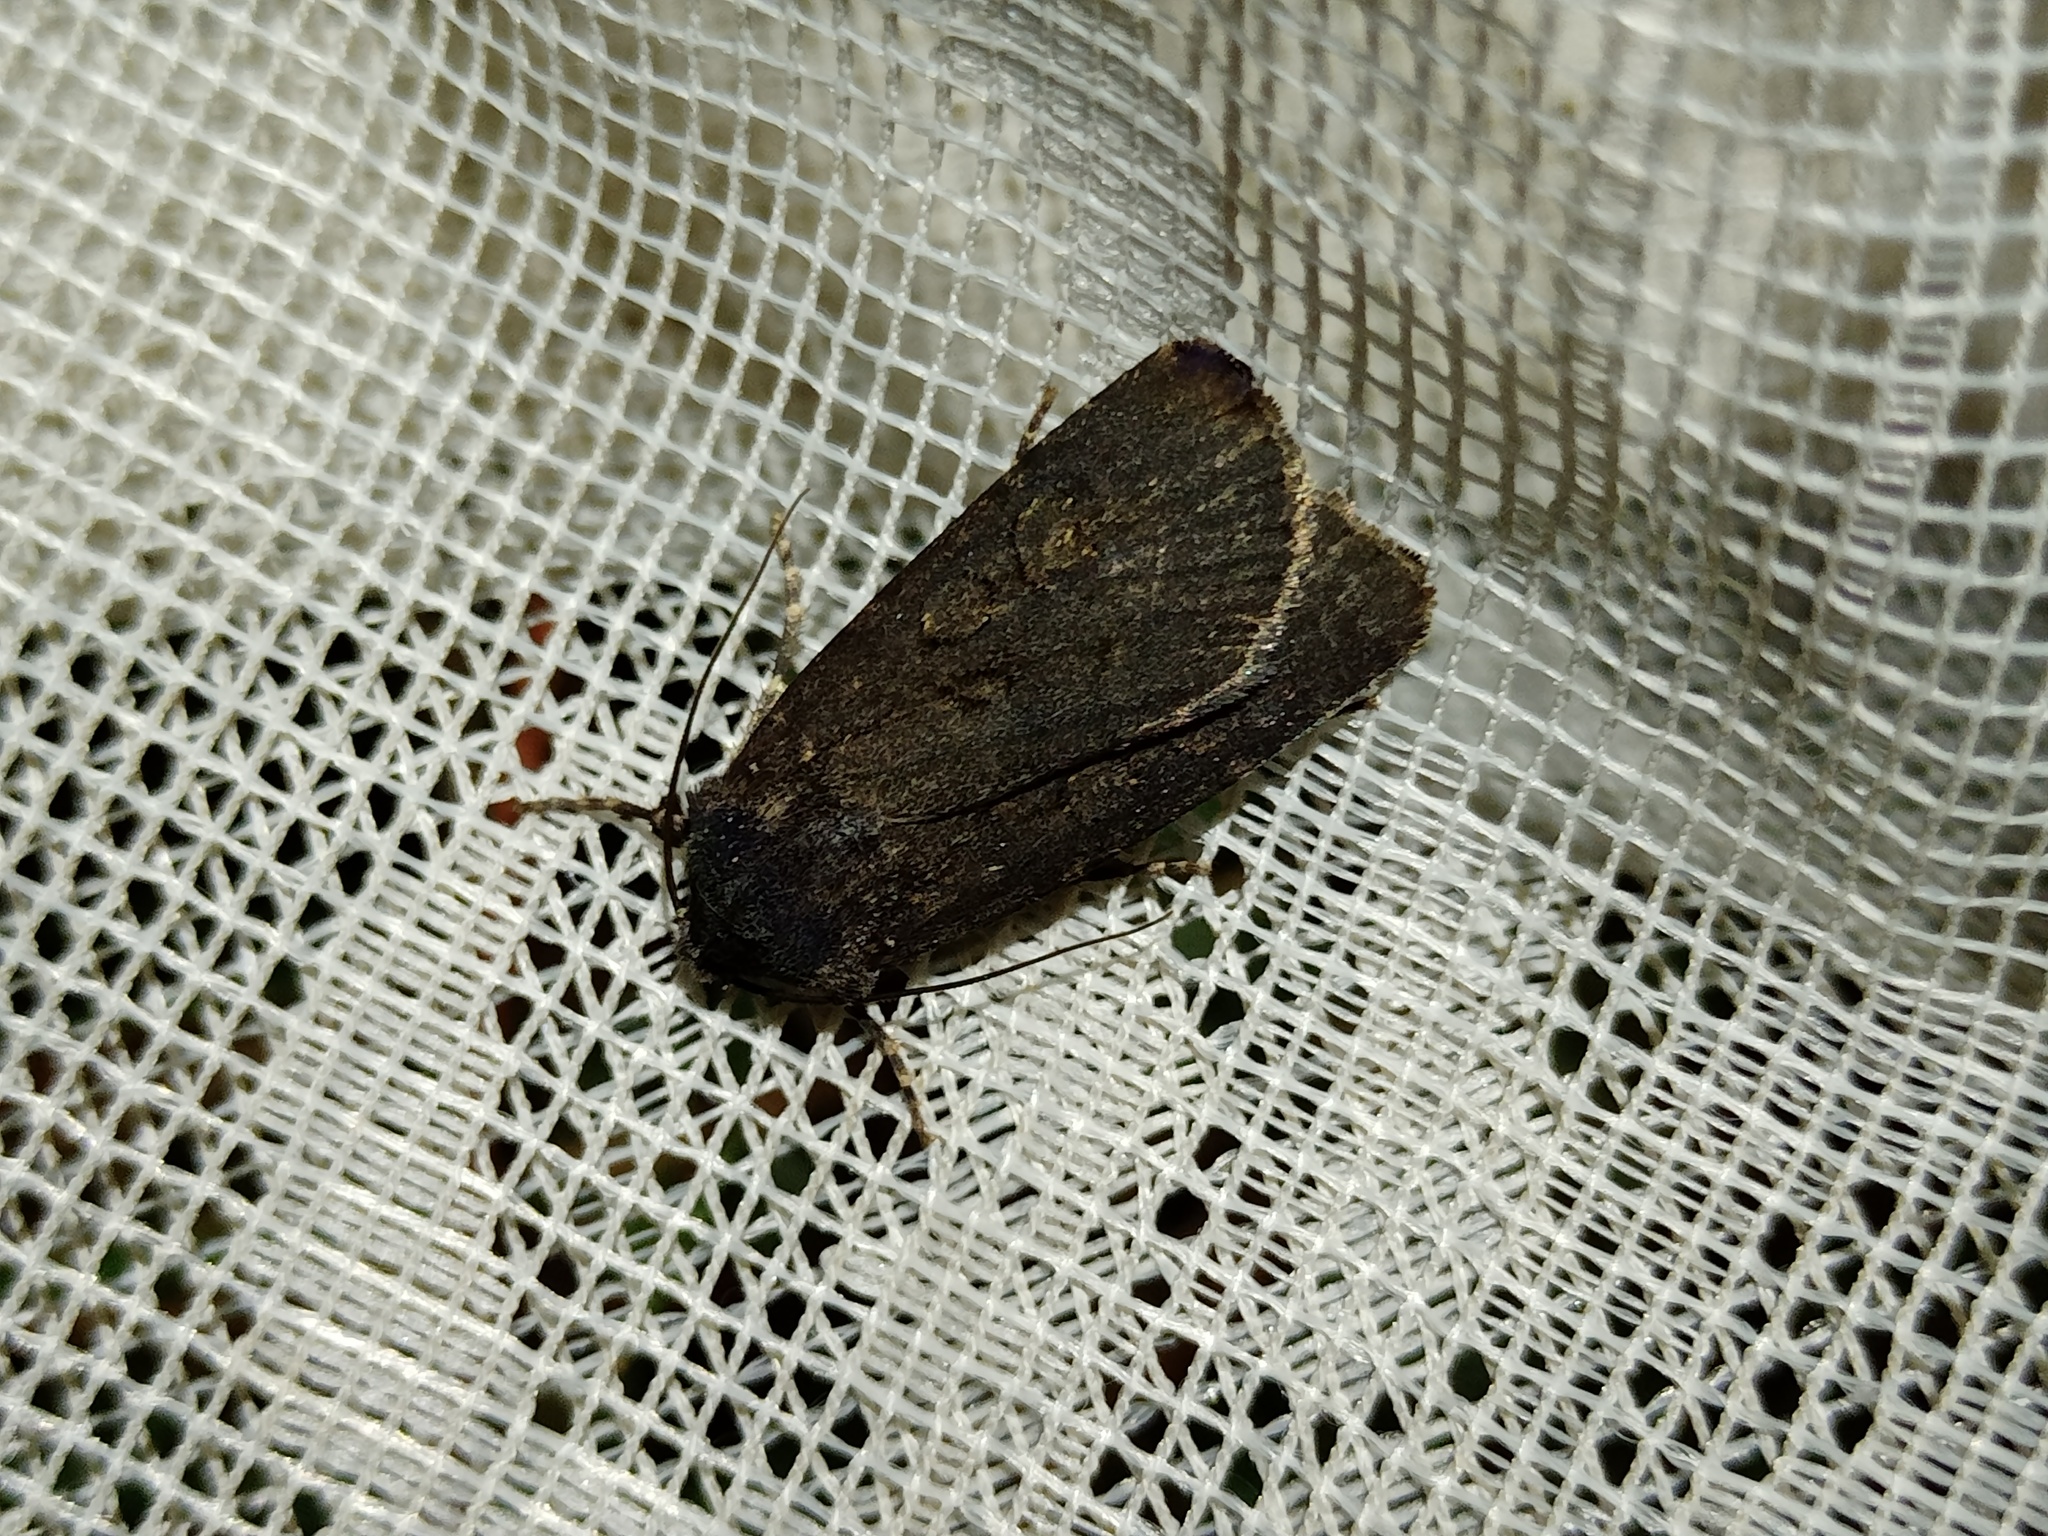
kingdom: Animalia
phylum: Arthropoda
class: Insecta
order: Lepidoptera
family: Noctuidae
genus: Euxoa
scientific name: Euxoa nigricans
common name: Garden dart
